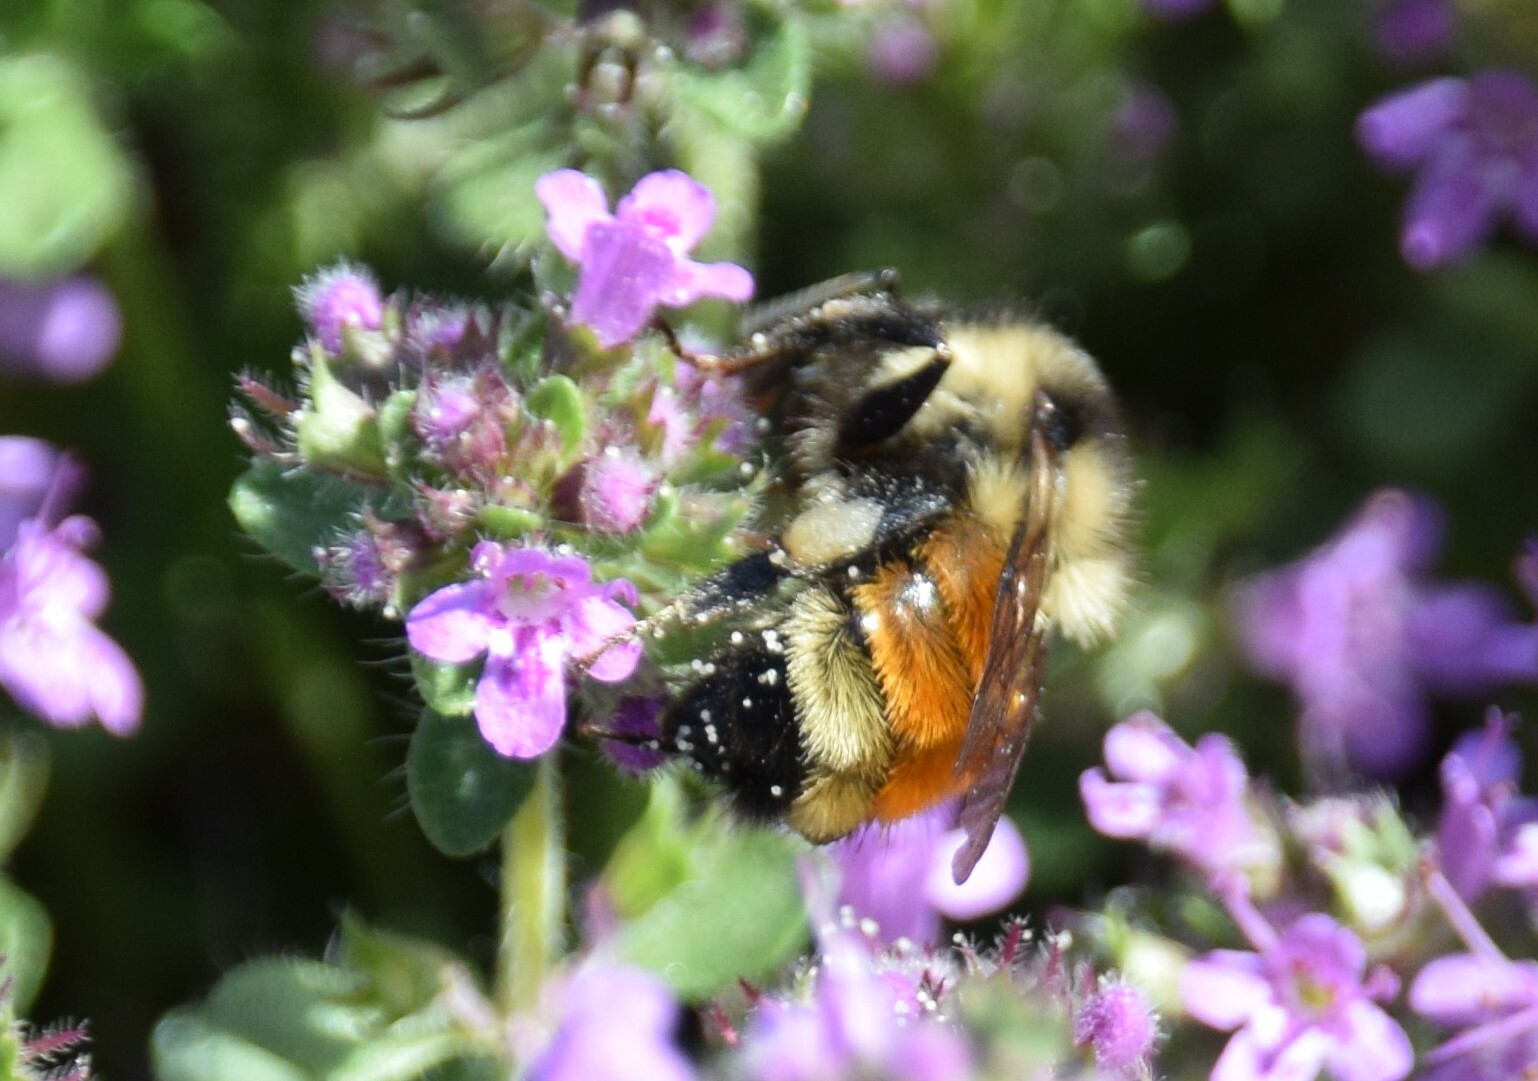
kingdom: Animalia
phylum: Arthropoda
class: Insecta
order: Hymenoptera
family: Apidae
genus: Bombus
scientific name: Bombus ternarius
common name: Tri-colored bumble bee
